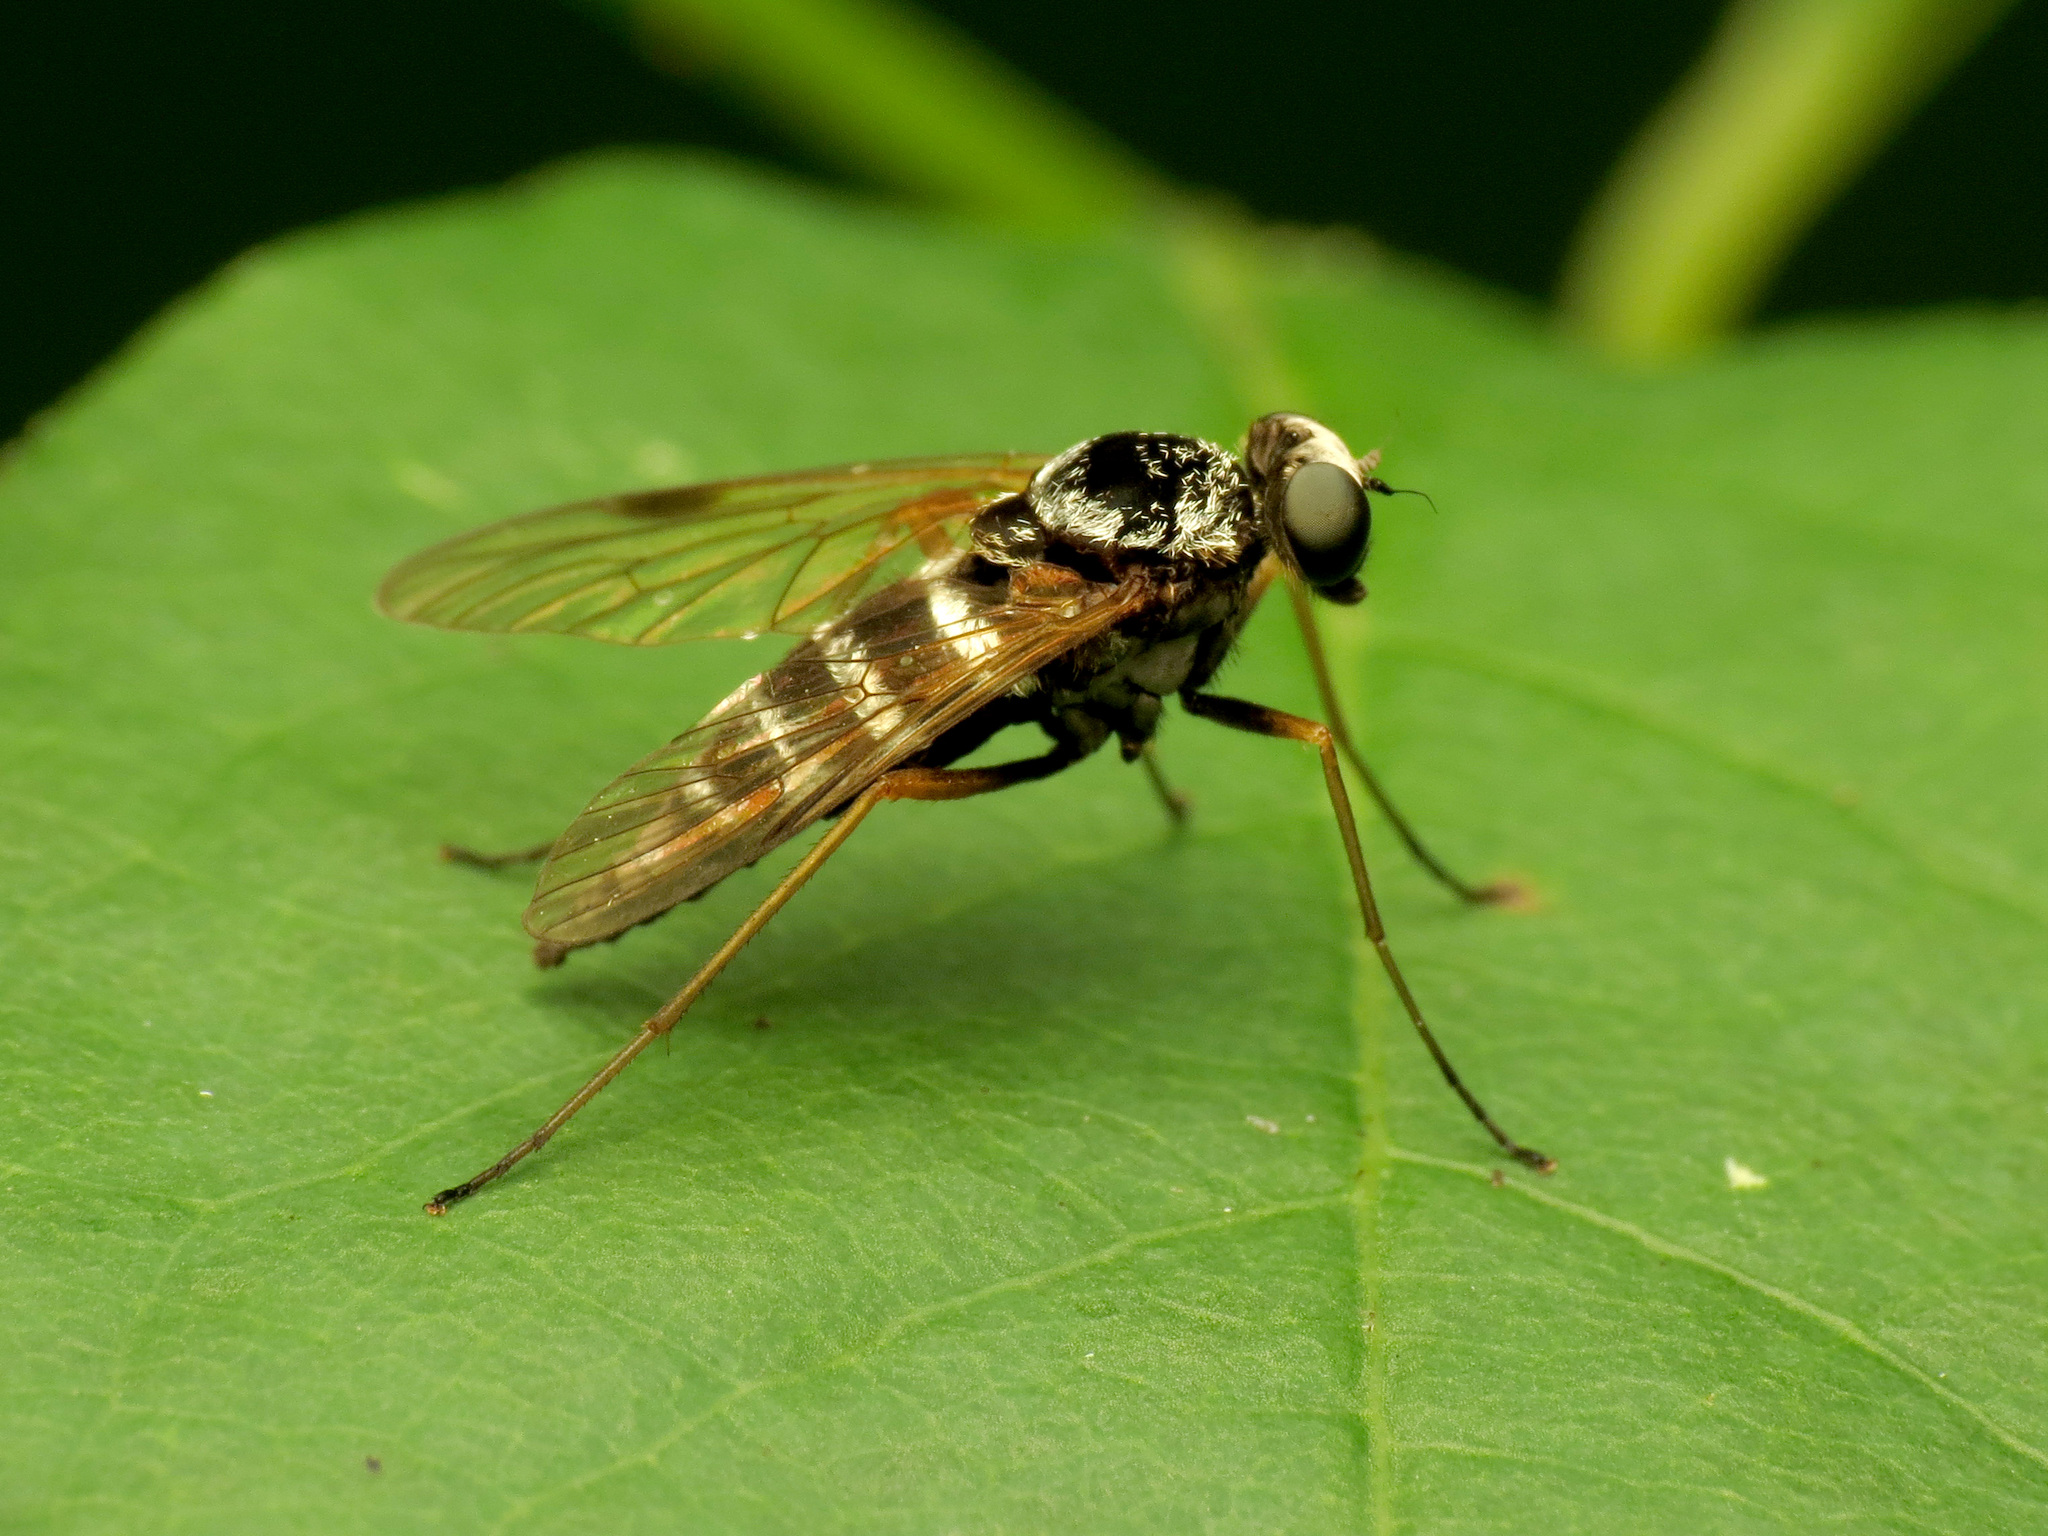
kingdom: Animalia
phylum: Arthropoda
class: Insecta
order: Diptera
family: Rhagionidae
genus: Chrysopilus
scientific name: Chrysopilus fasciatus
